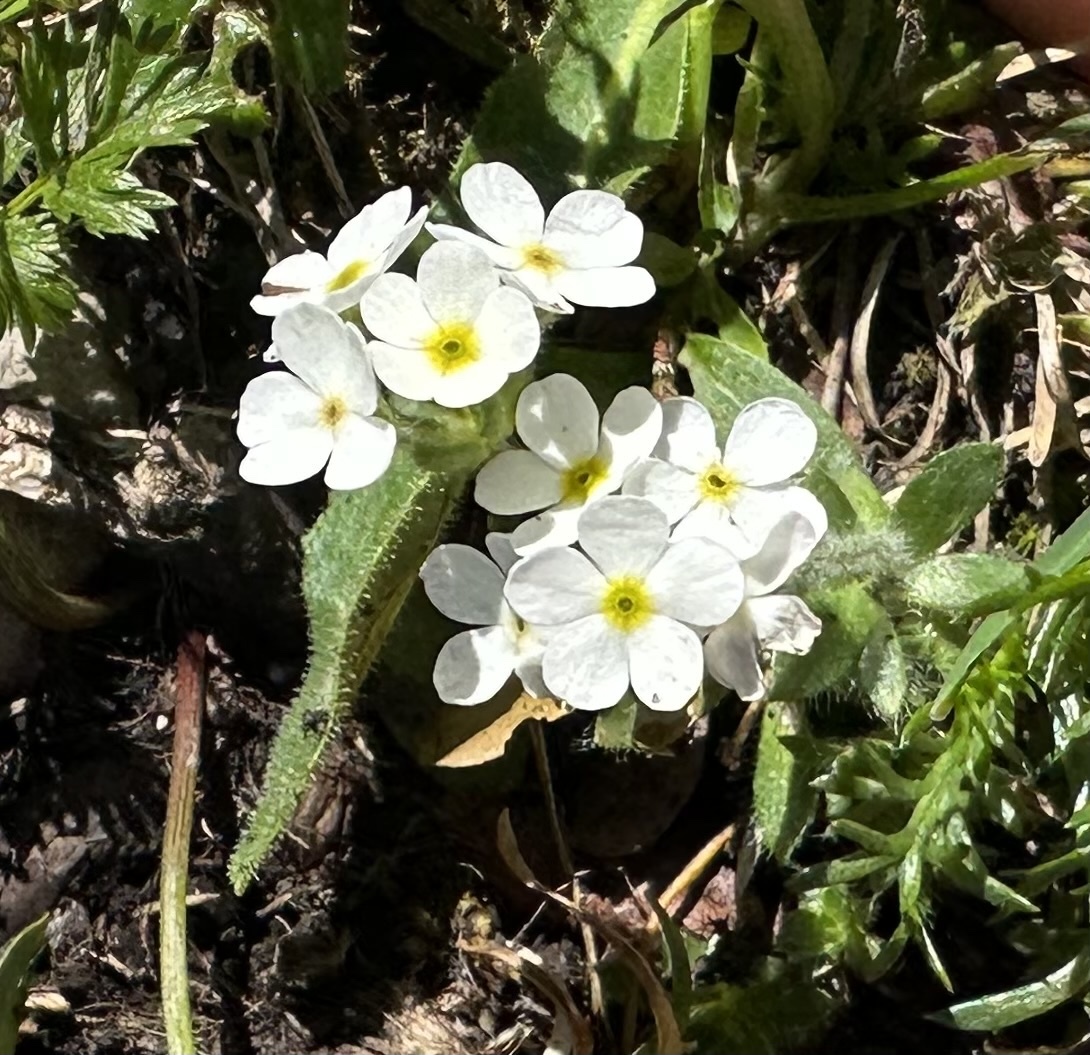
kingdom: Plantae
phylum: Tracheophyta
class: Magnoliopsida
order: Ericales
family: Primulaceae
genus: Androsace
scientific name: Androsace chamaejasme
